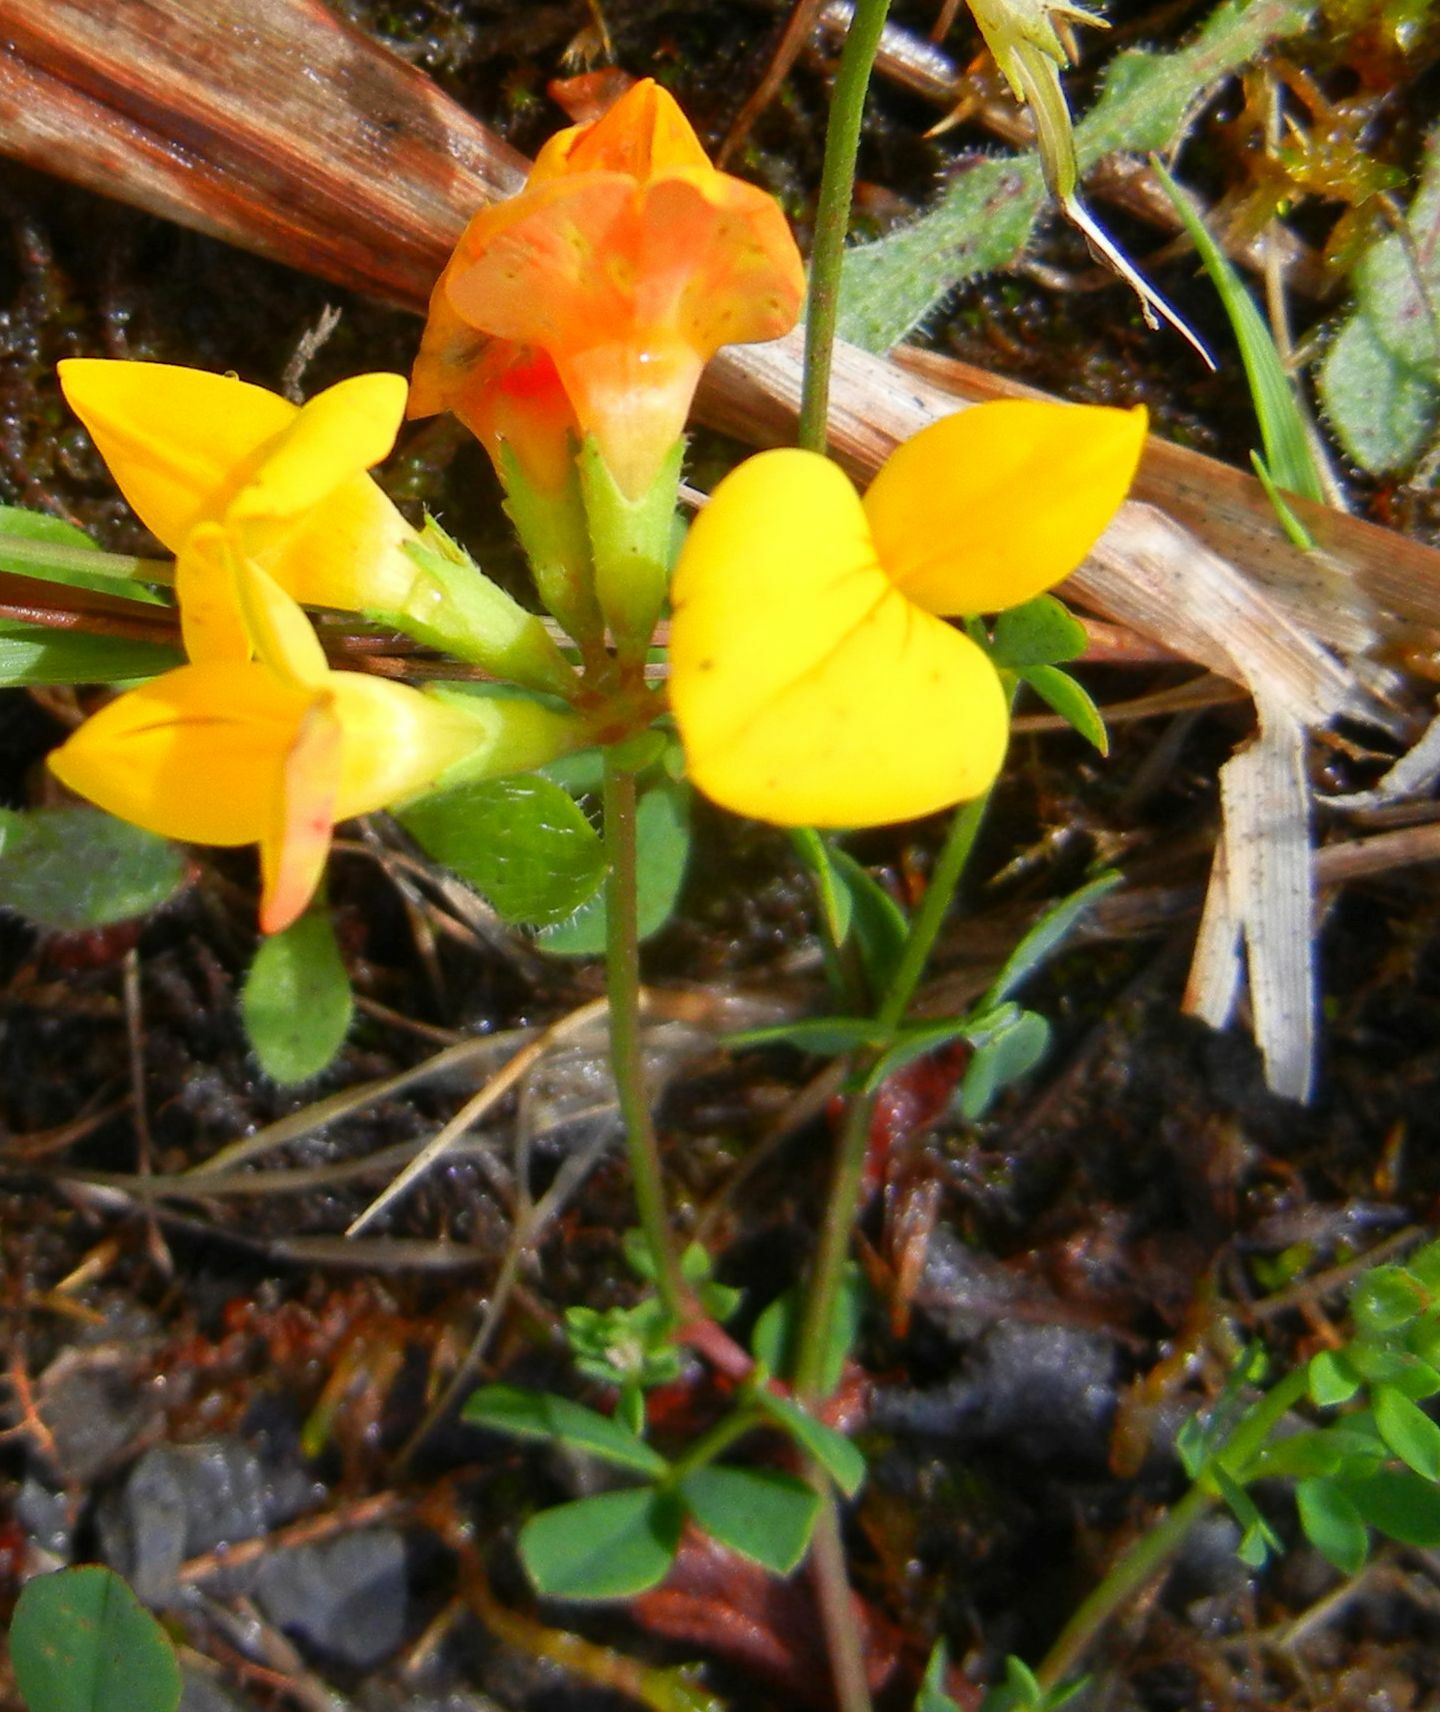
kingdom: Plantae
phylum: Tracheophyta
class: Magnoliopsida
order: Fabales
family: Fabaceae
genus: Lotus
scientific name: Lotus corniculatus
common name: Common bird's-foot-trefoil
